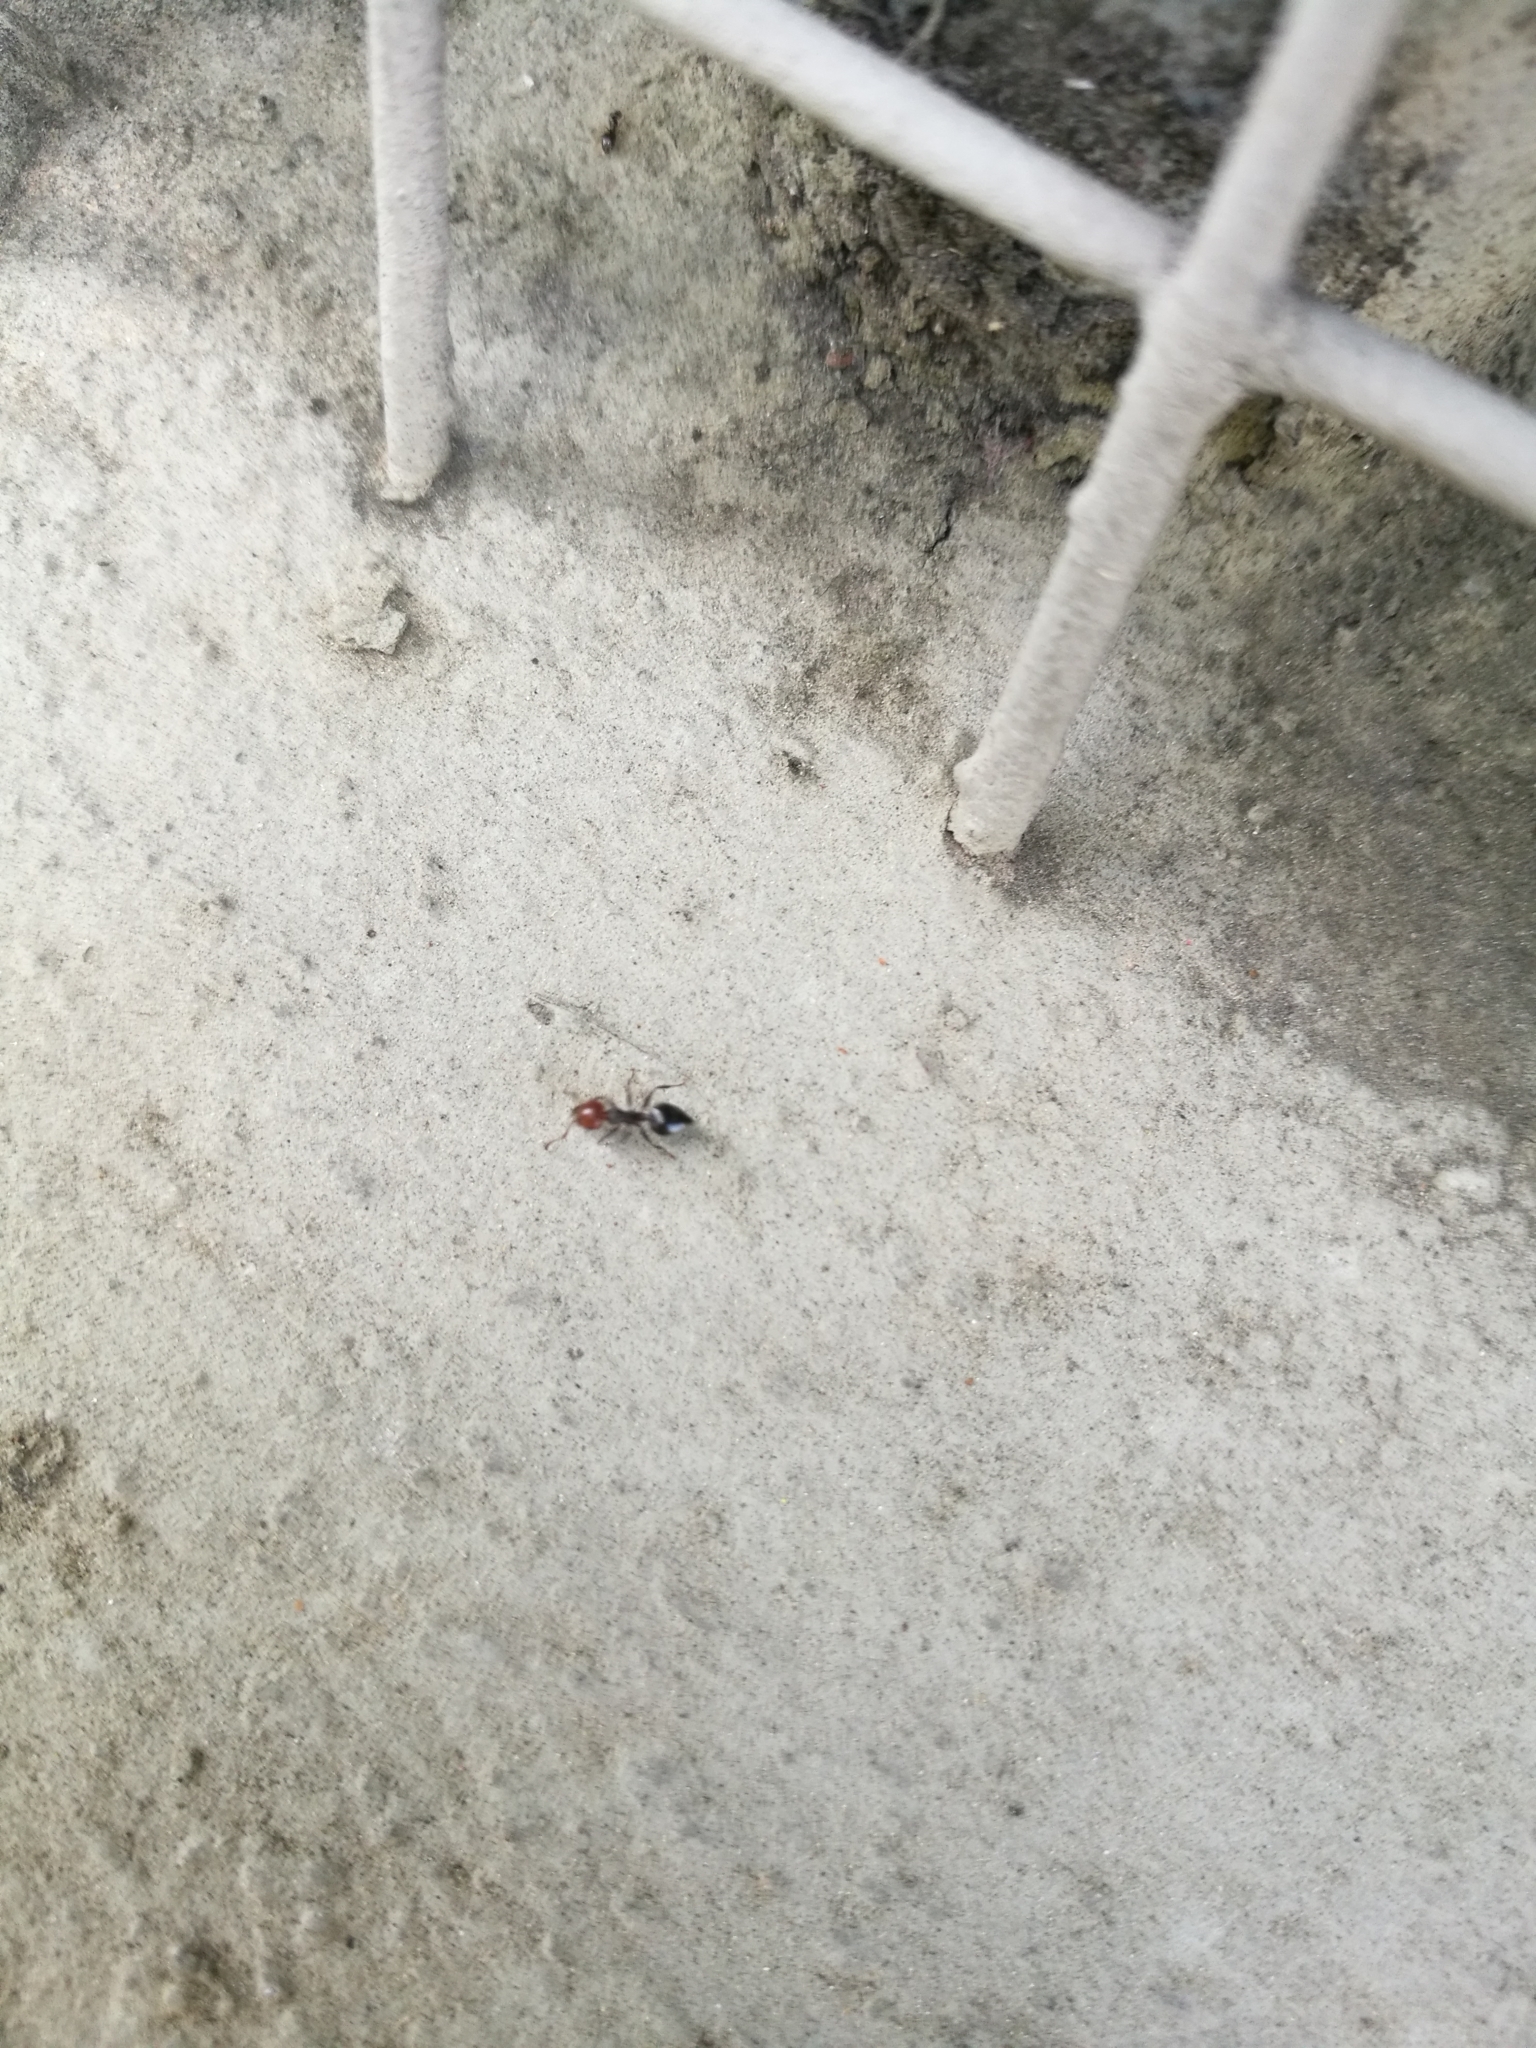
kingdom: Animalia
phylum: Arthropoda
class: Insecta
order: Hymenoptera
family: Formicidae
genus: Crematogaster
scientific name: Crematogaster scutellaris
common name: Fourmi du liège
